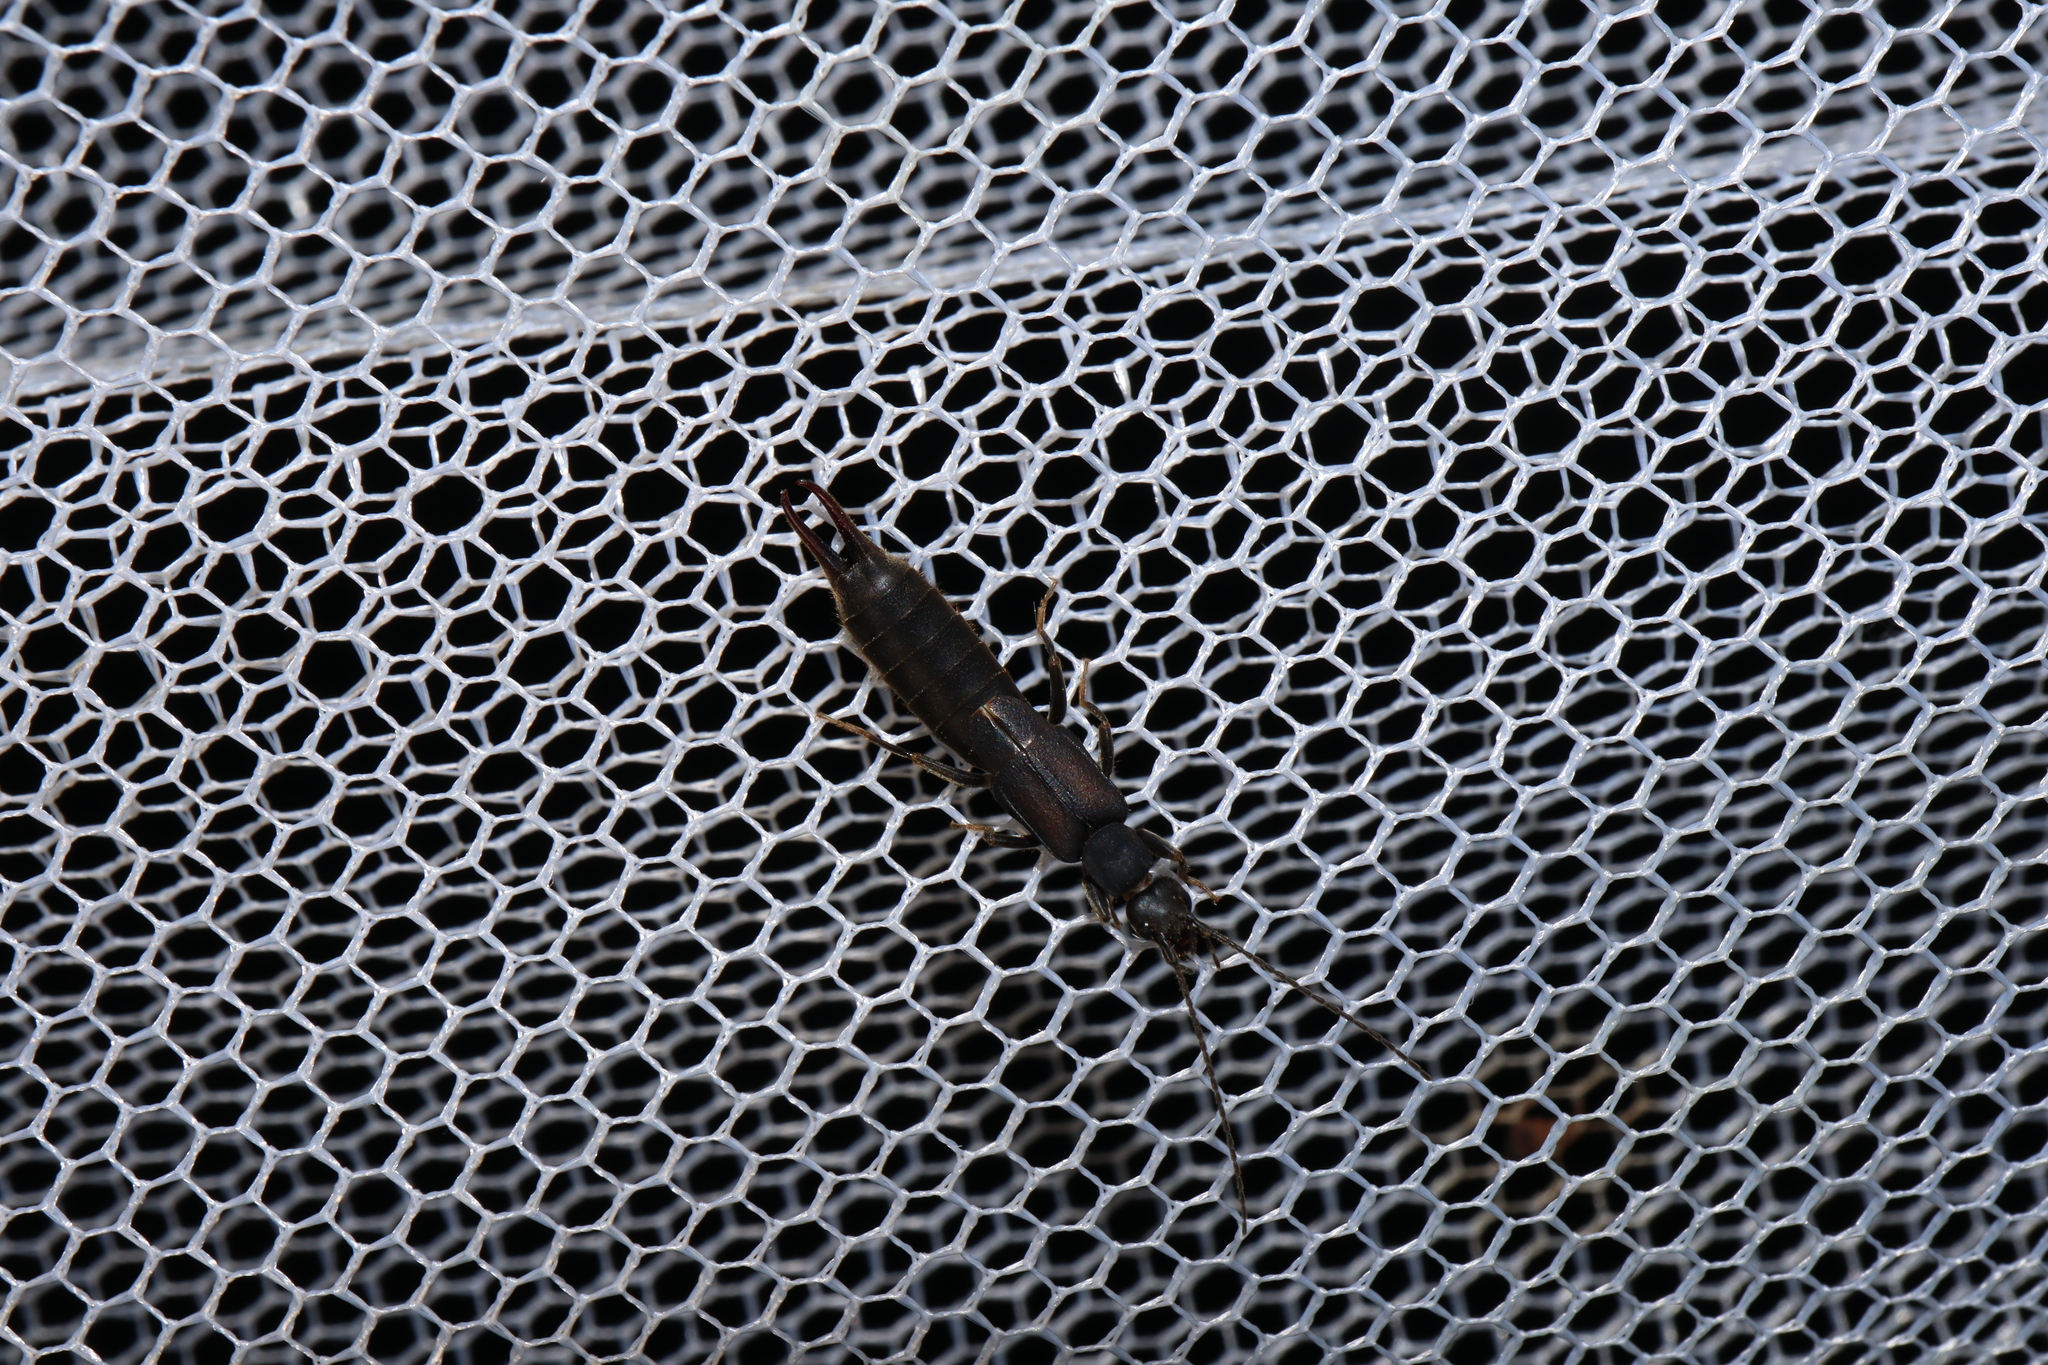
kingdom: Animalia
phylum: Arthropoda
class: Insecta
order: Dermaptera
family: Labiduridae
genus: Nala
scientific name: Nala lividipes
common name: Earwig
